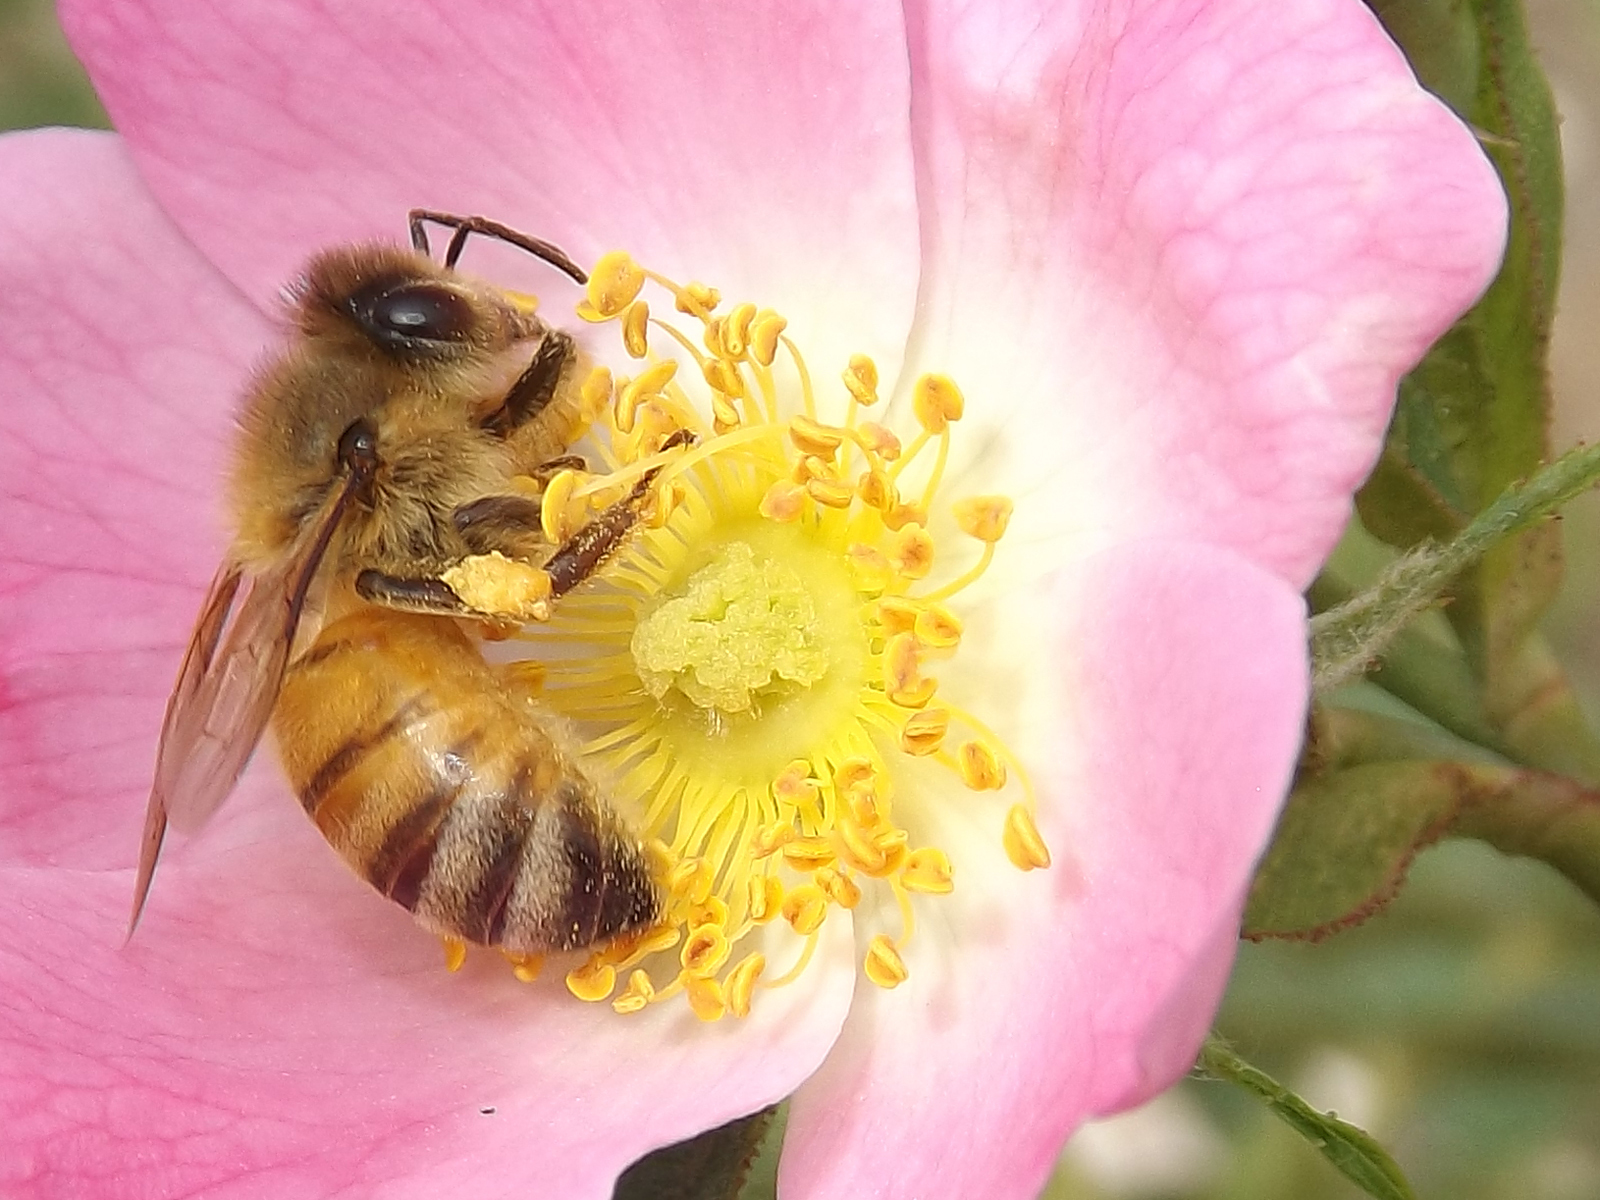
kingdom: Animalia
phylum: Arthropoda
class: Insecta
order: Hymenoptera
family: Apidae
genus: Apis
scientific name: Apis mellifera
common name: Honey bee
